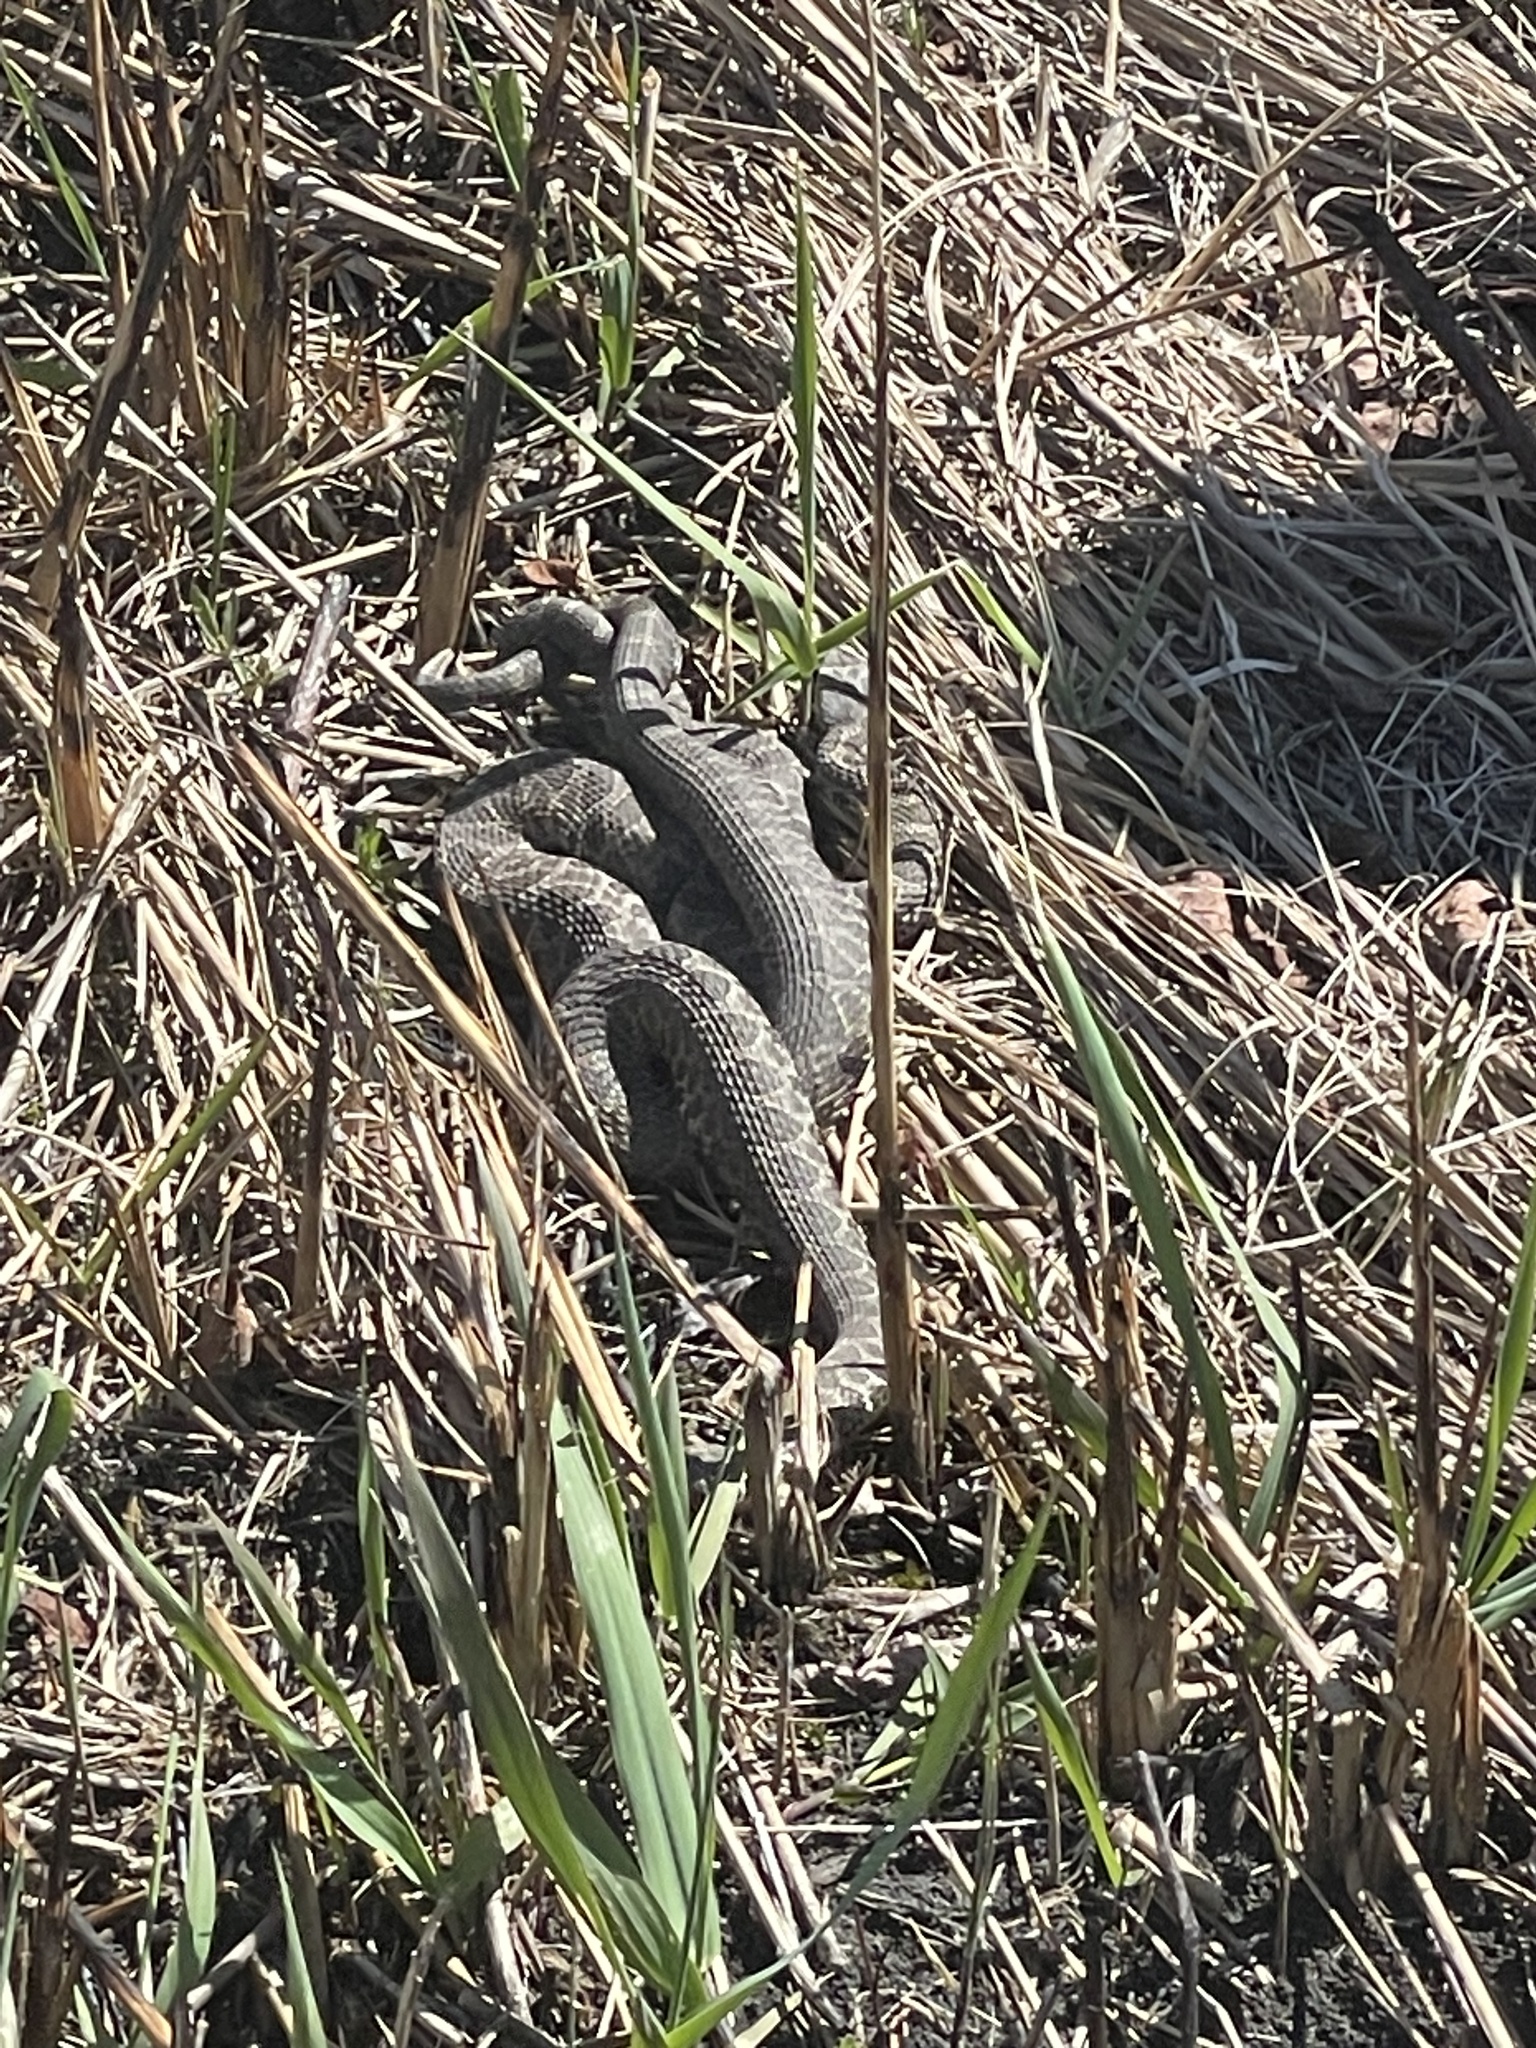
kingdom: Animalia
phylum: Chordata
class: Squamata
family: Viperidae
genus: Sistrurus
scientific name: Sistrurus tergeminus
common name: Desert massasauga [edwardsi]
